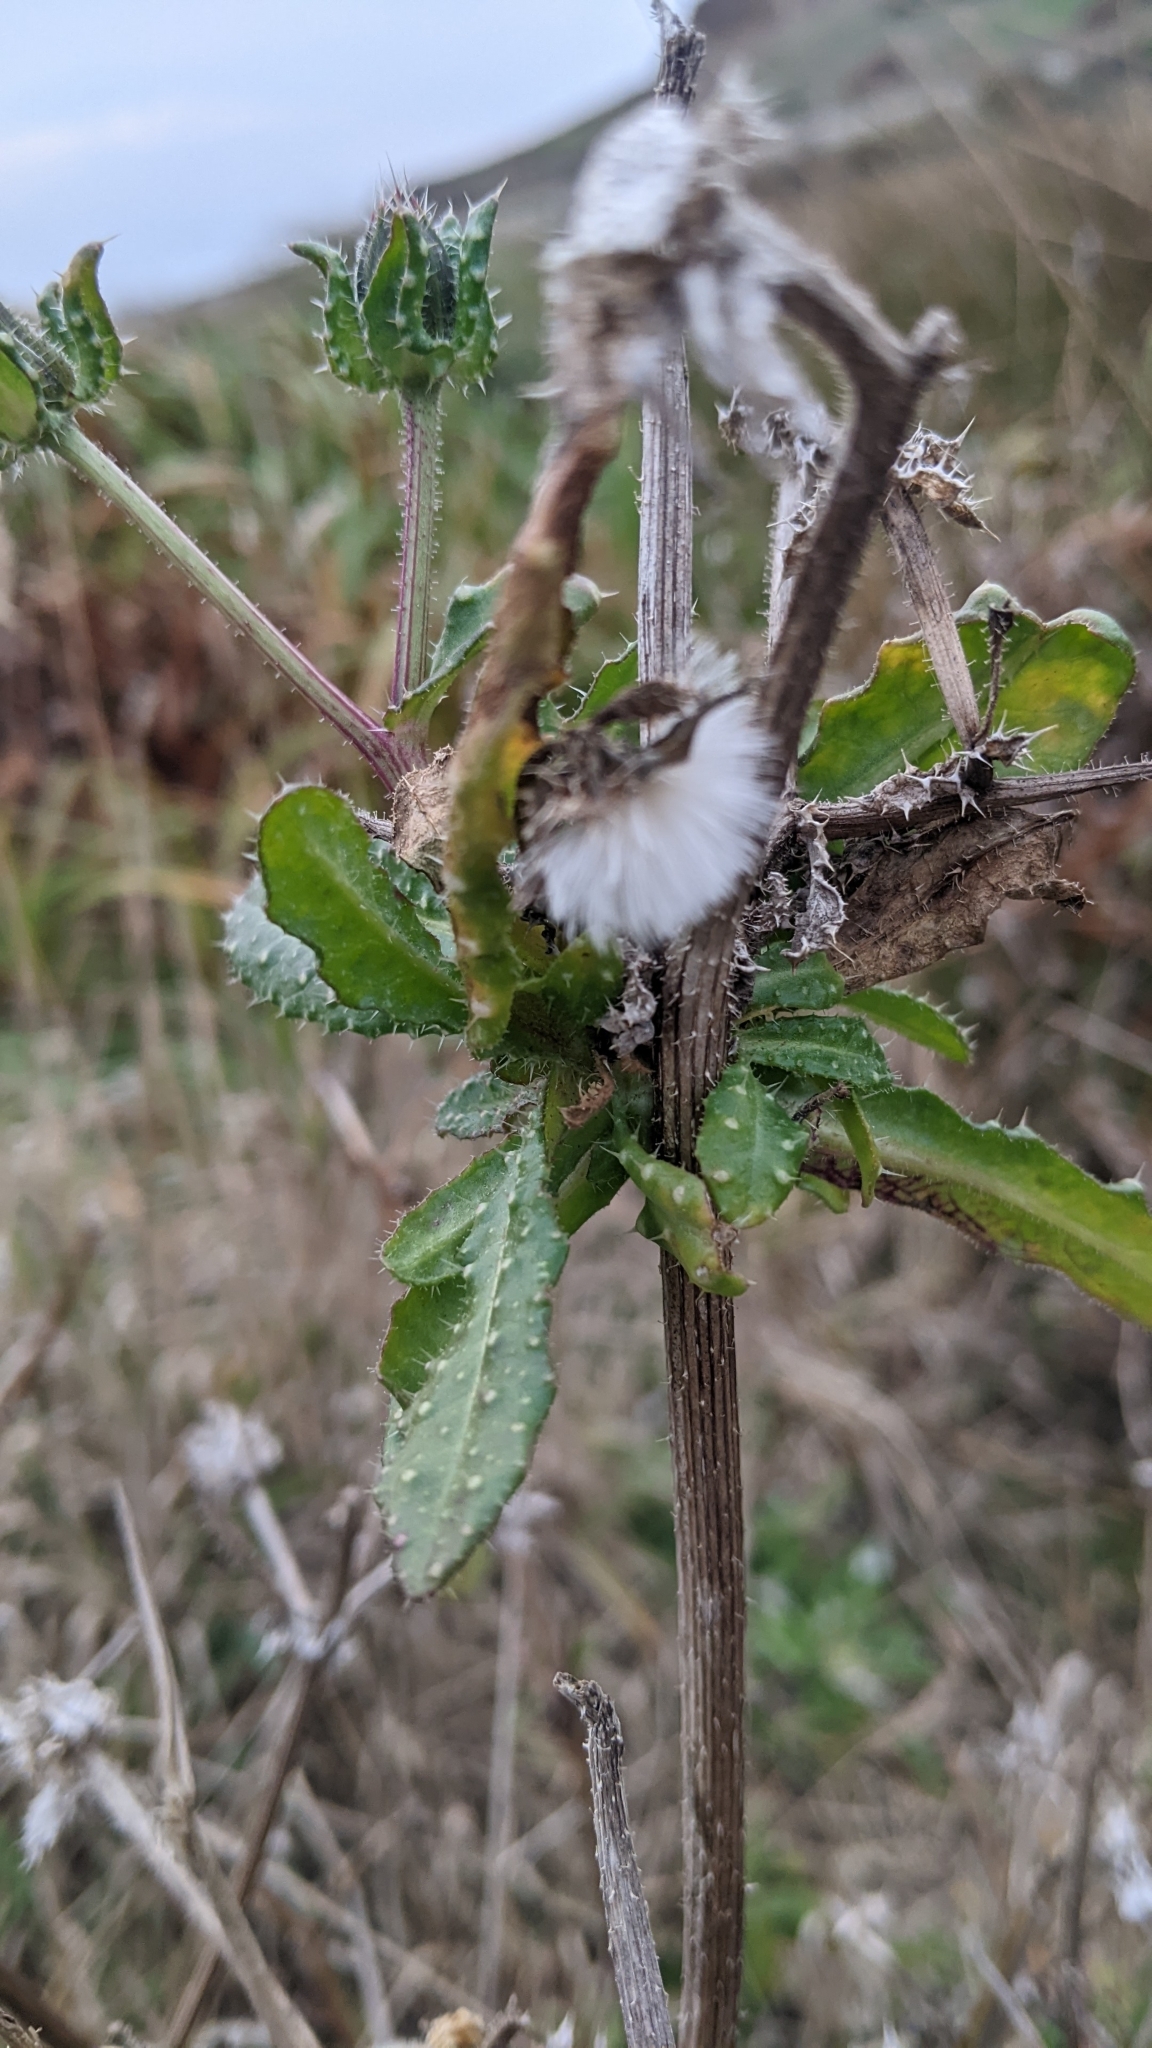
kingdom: Plantae
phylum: Tracheophyta
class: Magnoliopsida
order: Asterales
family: Asteraceae
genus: Helminthotheca
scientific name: Helminthotheca echioides
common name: Ox-tongue
